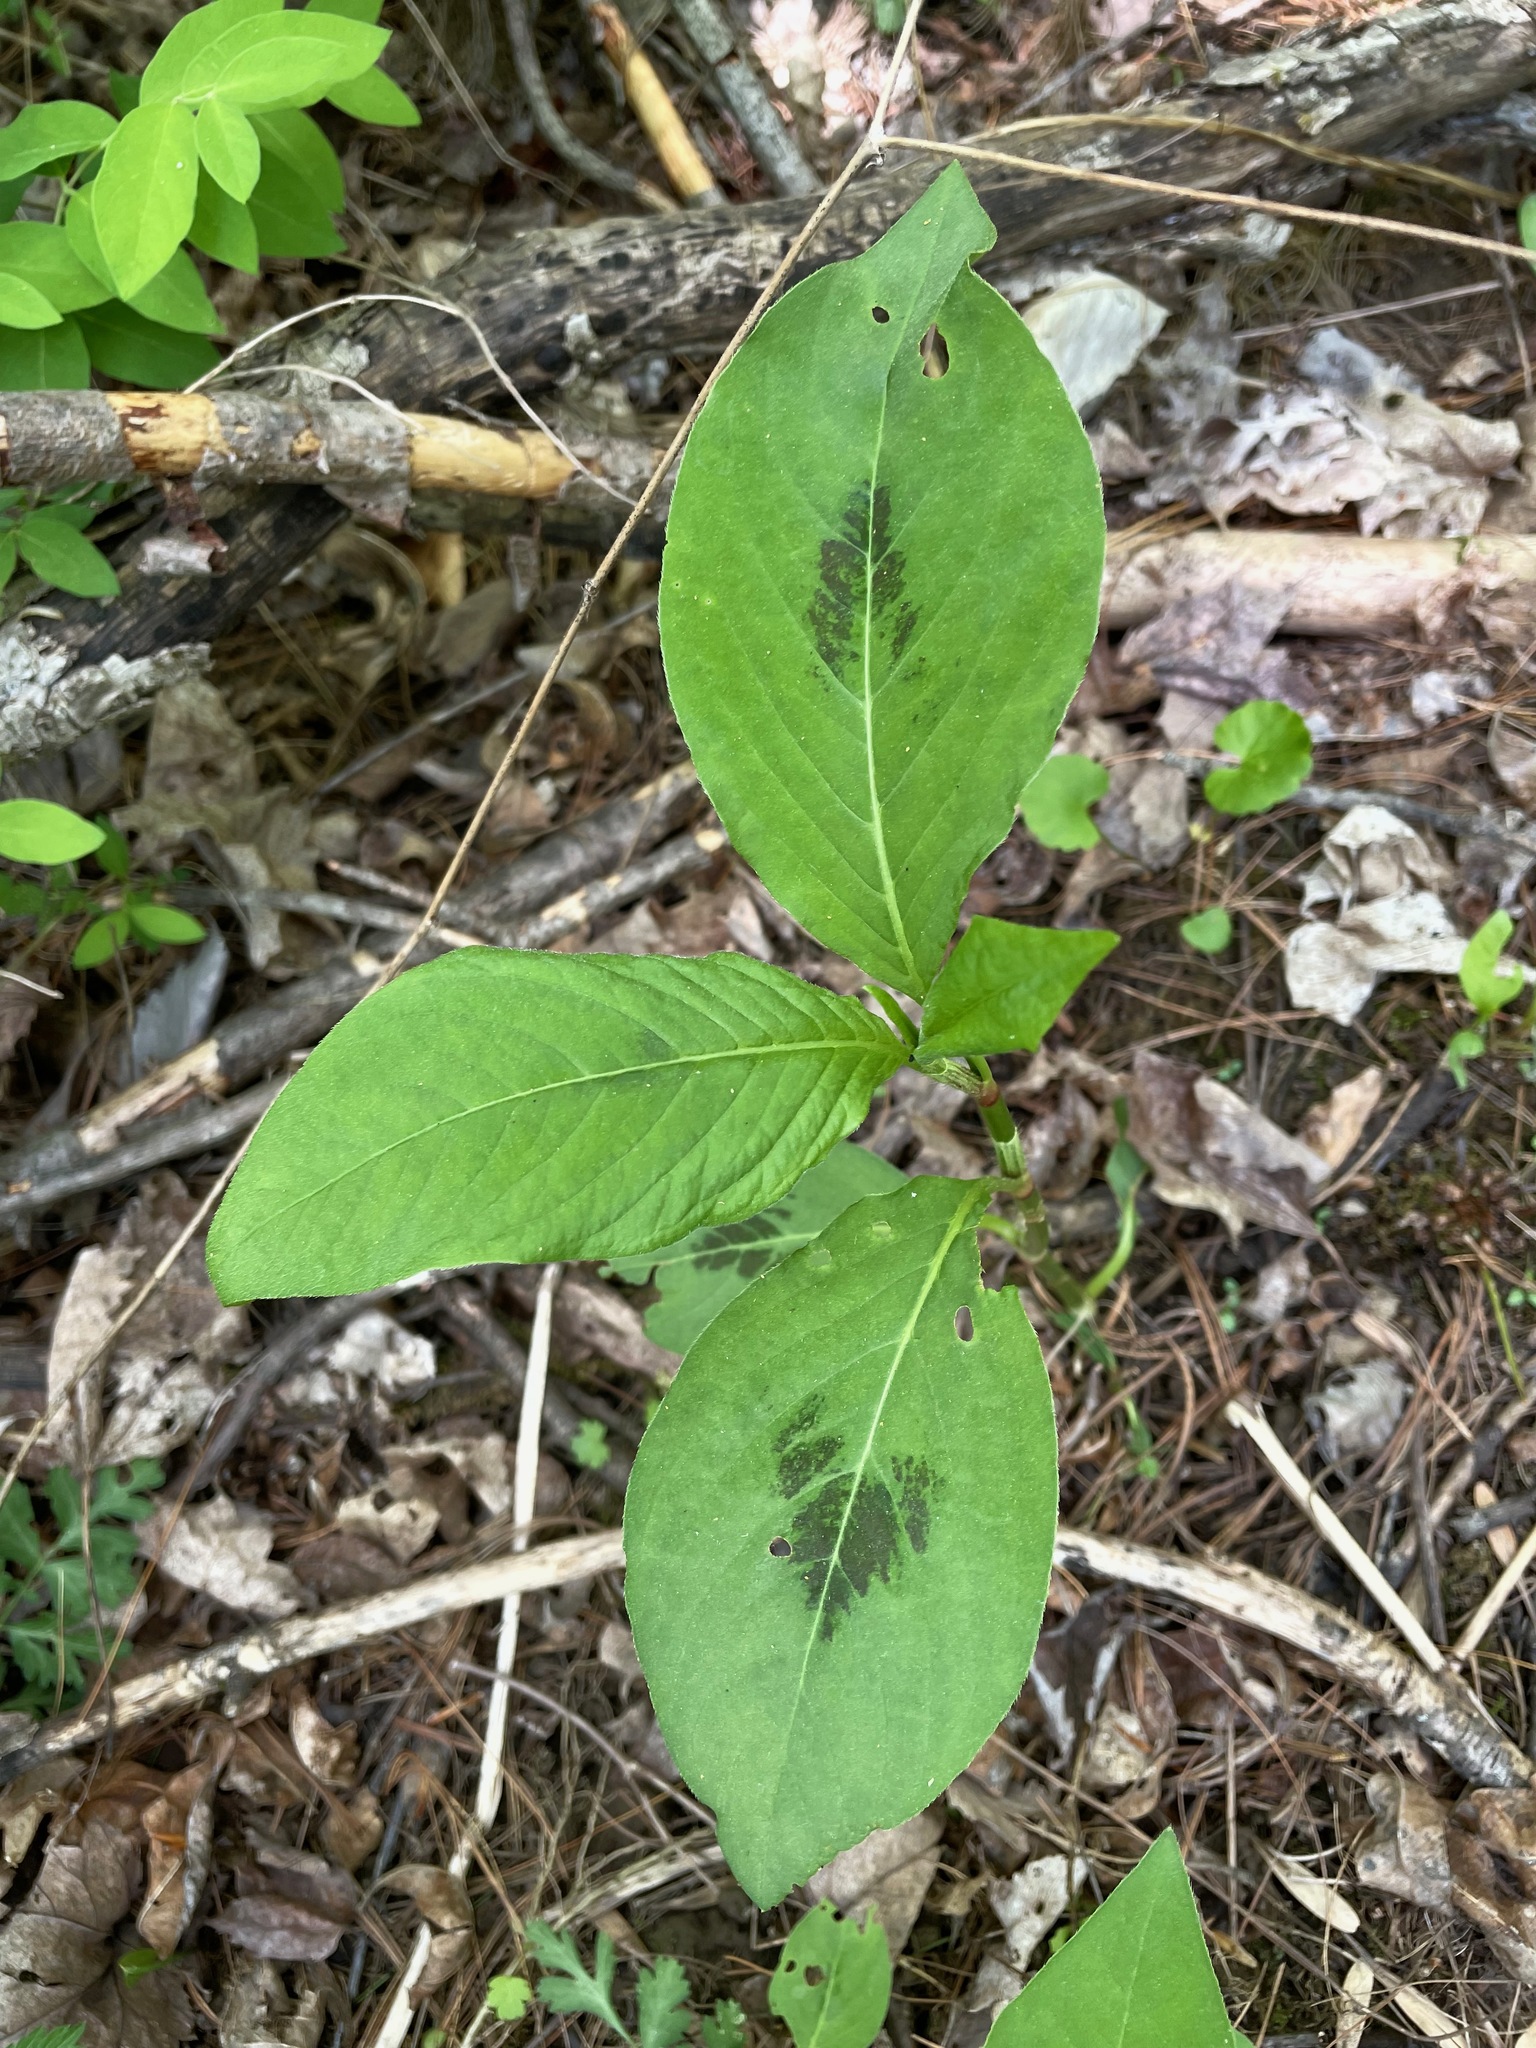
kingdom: Plantae
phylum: Tracheophyta
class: Magnoliopsida
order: Caryophyllales
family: Polygonaceae
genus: Persicaria
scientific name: Persicaria virginiana
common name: Jumpseed
